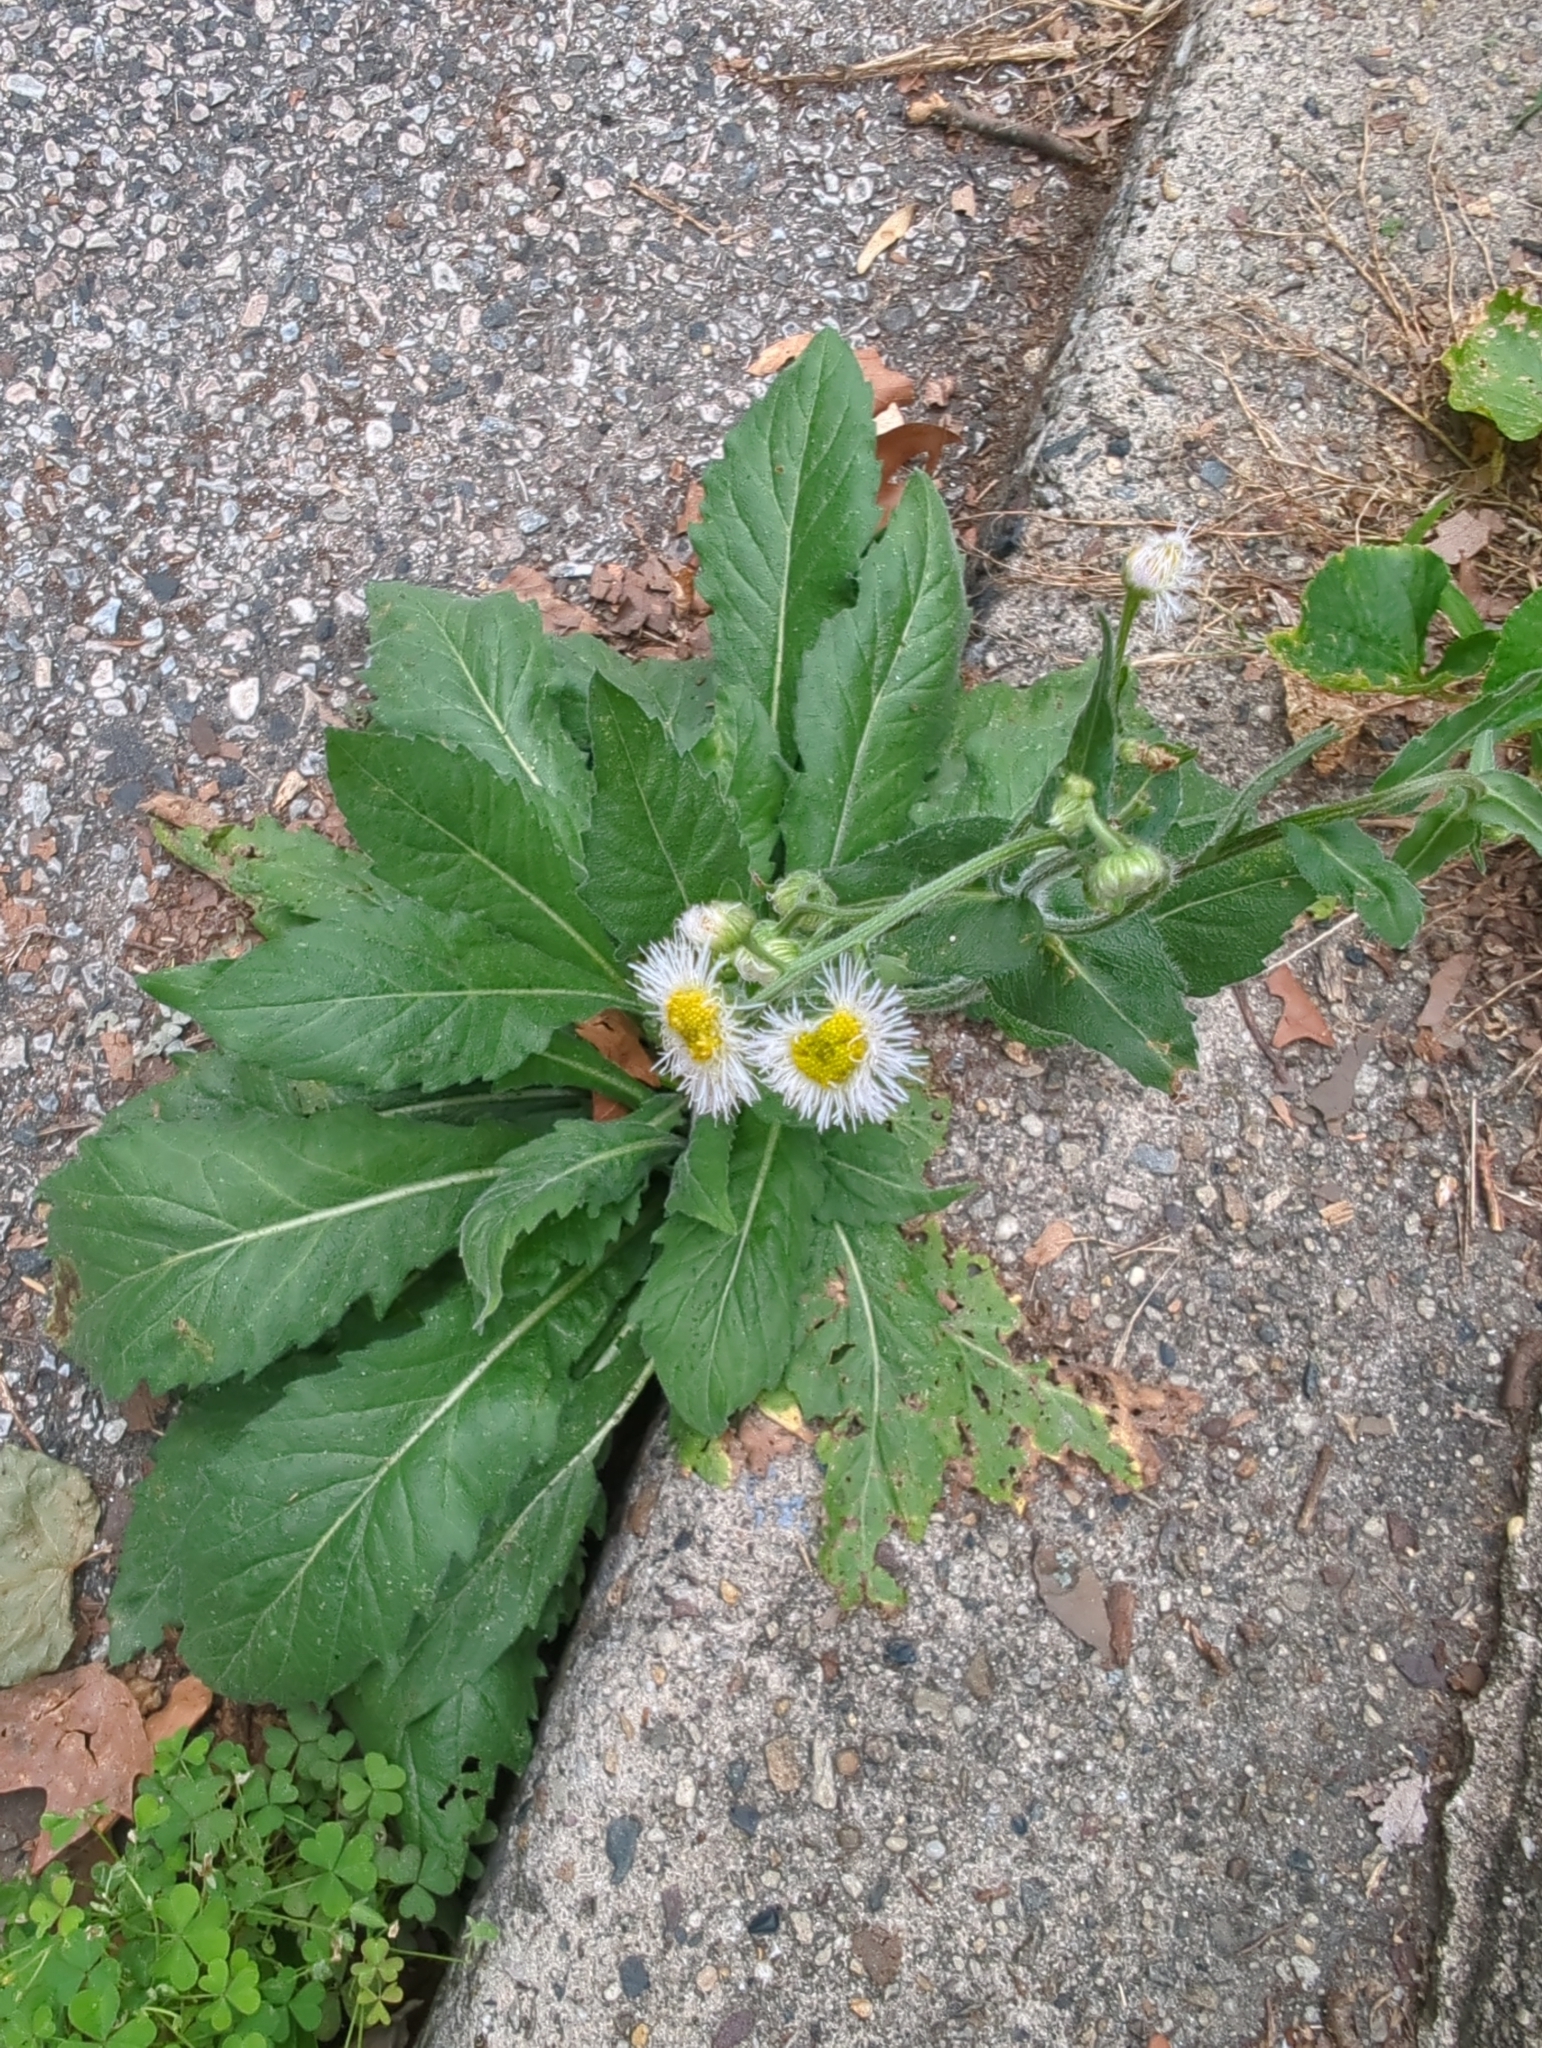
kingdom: Plantae
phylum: Tracheophyta
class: Magnoliopsida
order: Asterales
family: Asteraceae
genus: Erigeron
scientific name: Erigeron philadelphicus
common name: Robin's-plantain
